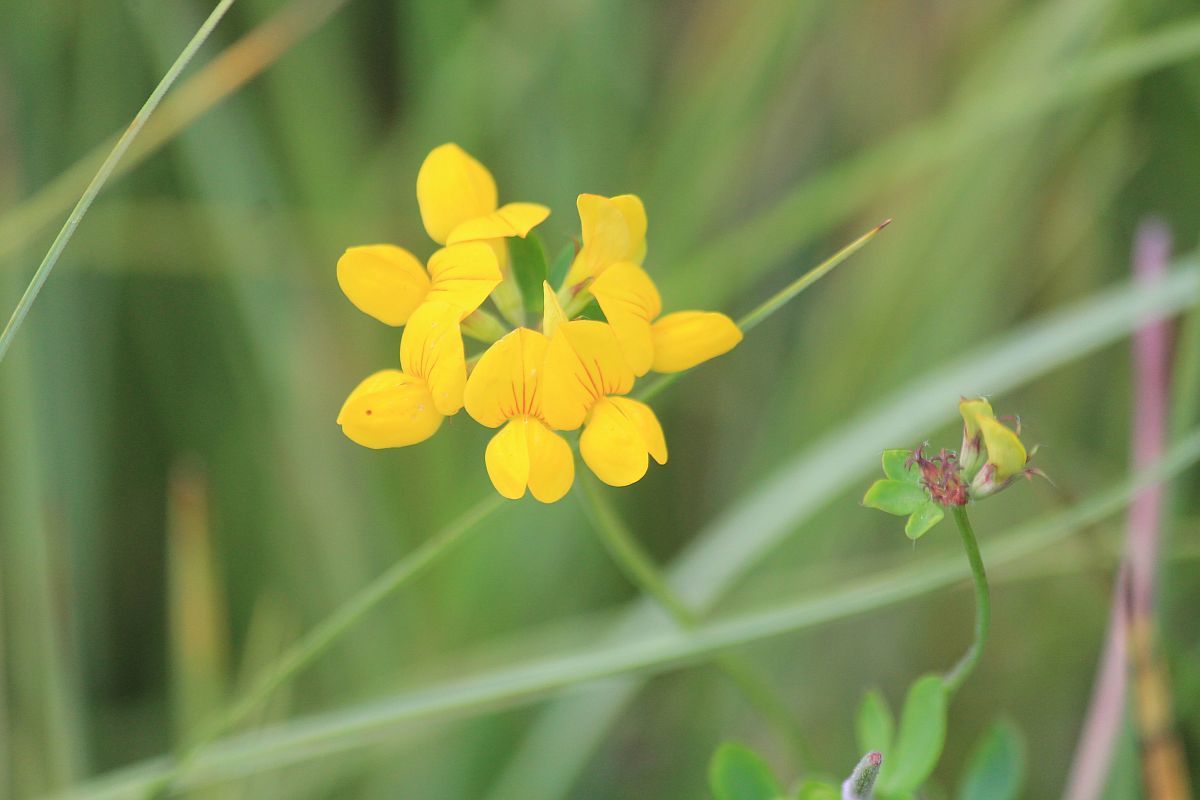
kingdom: Plantae
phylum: Tracheophyta
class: Magnoliopsida
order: Fabales
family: Fabaceae
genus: Lotus
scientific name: Lotus pedunculatus
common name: Greater birdsfoot-trefoil
